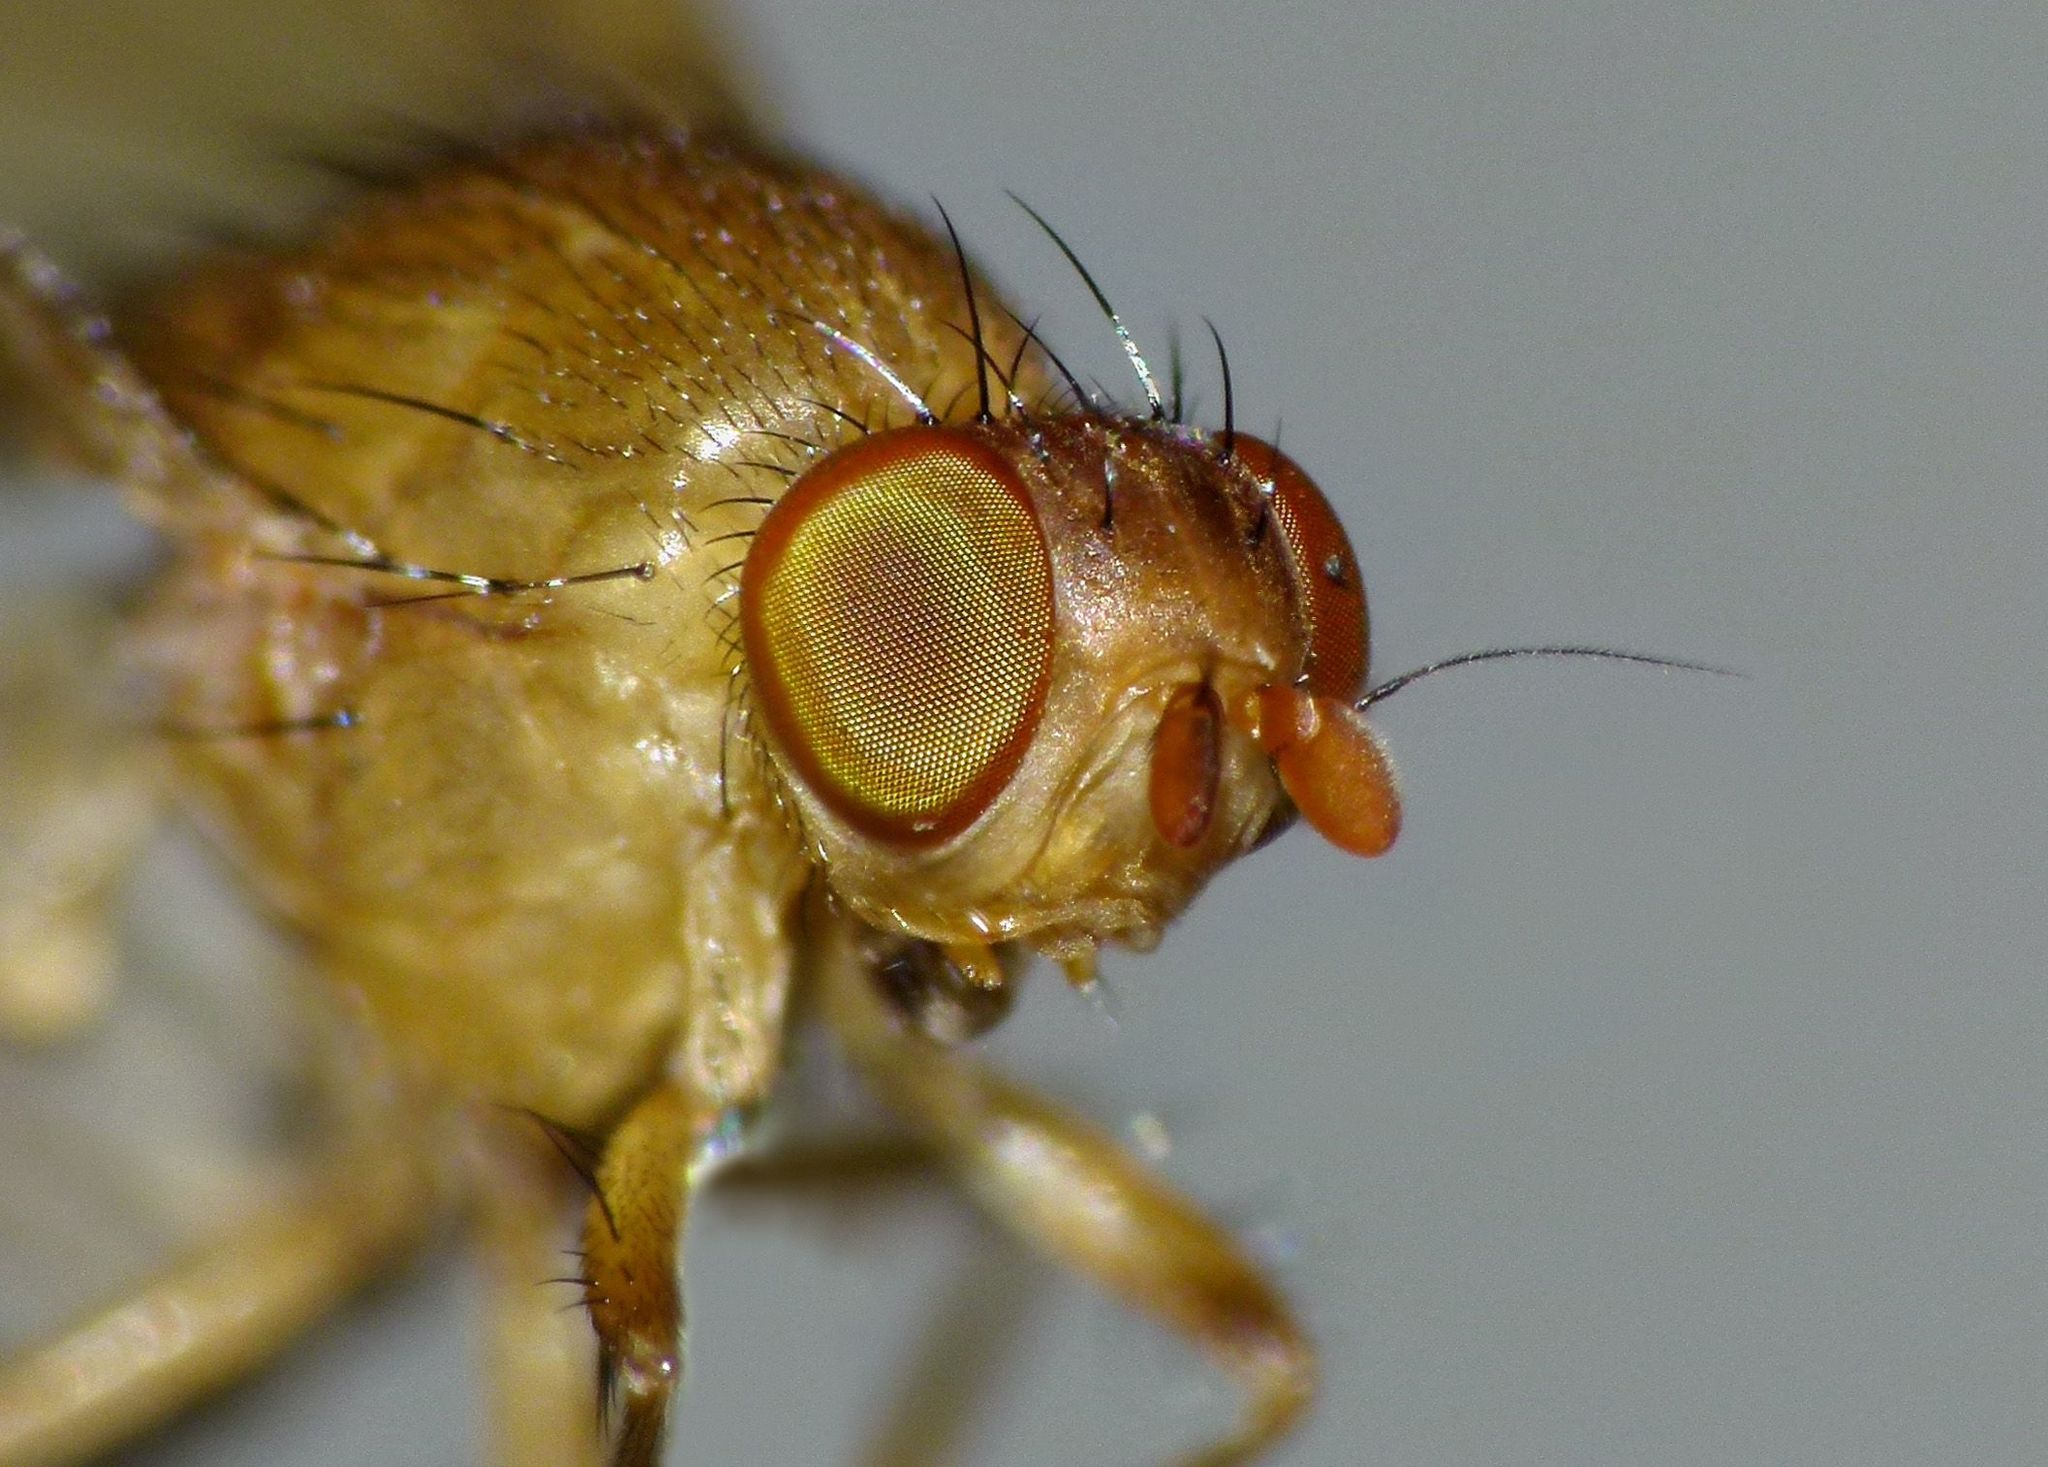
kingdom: Animalia
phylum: Arthropoda
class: Insecta
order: Diptera
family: Lauxaniidae
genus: Sapromyza
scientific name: Sapromyza simillima
